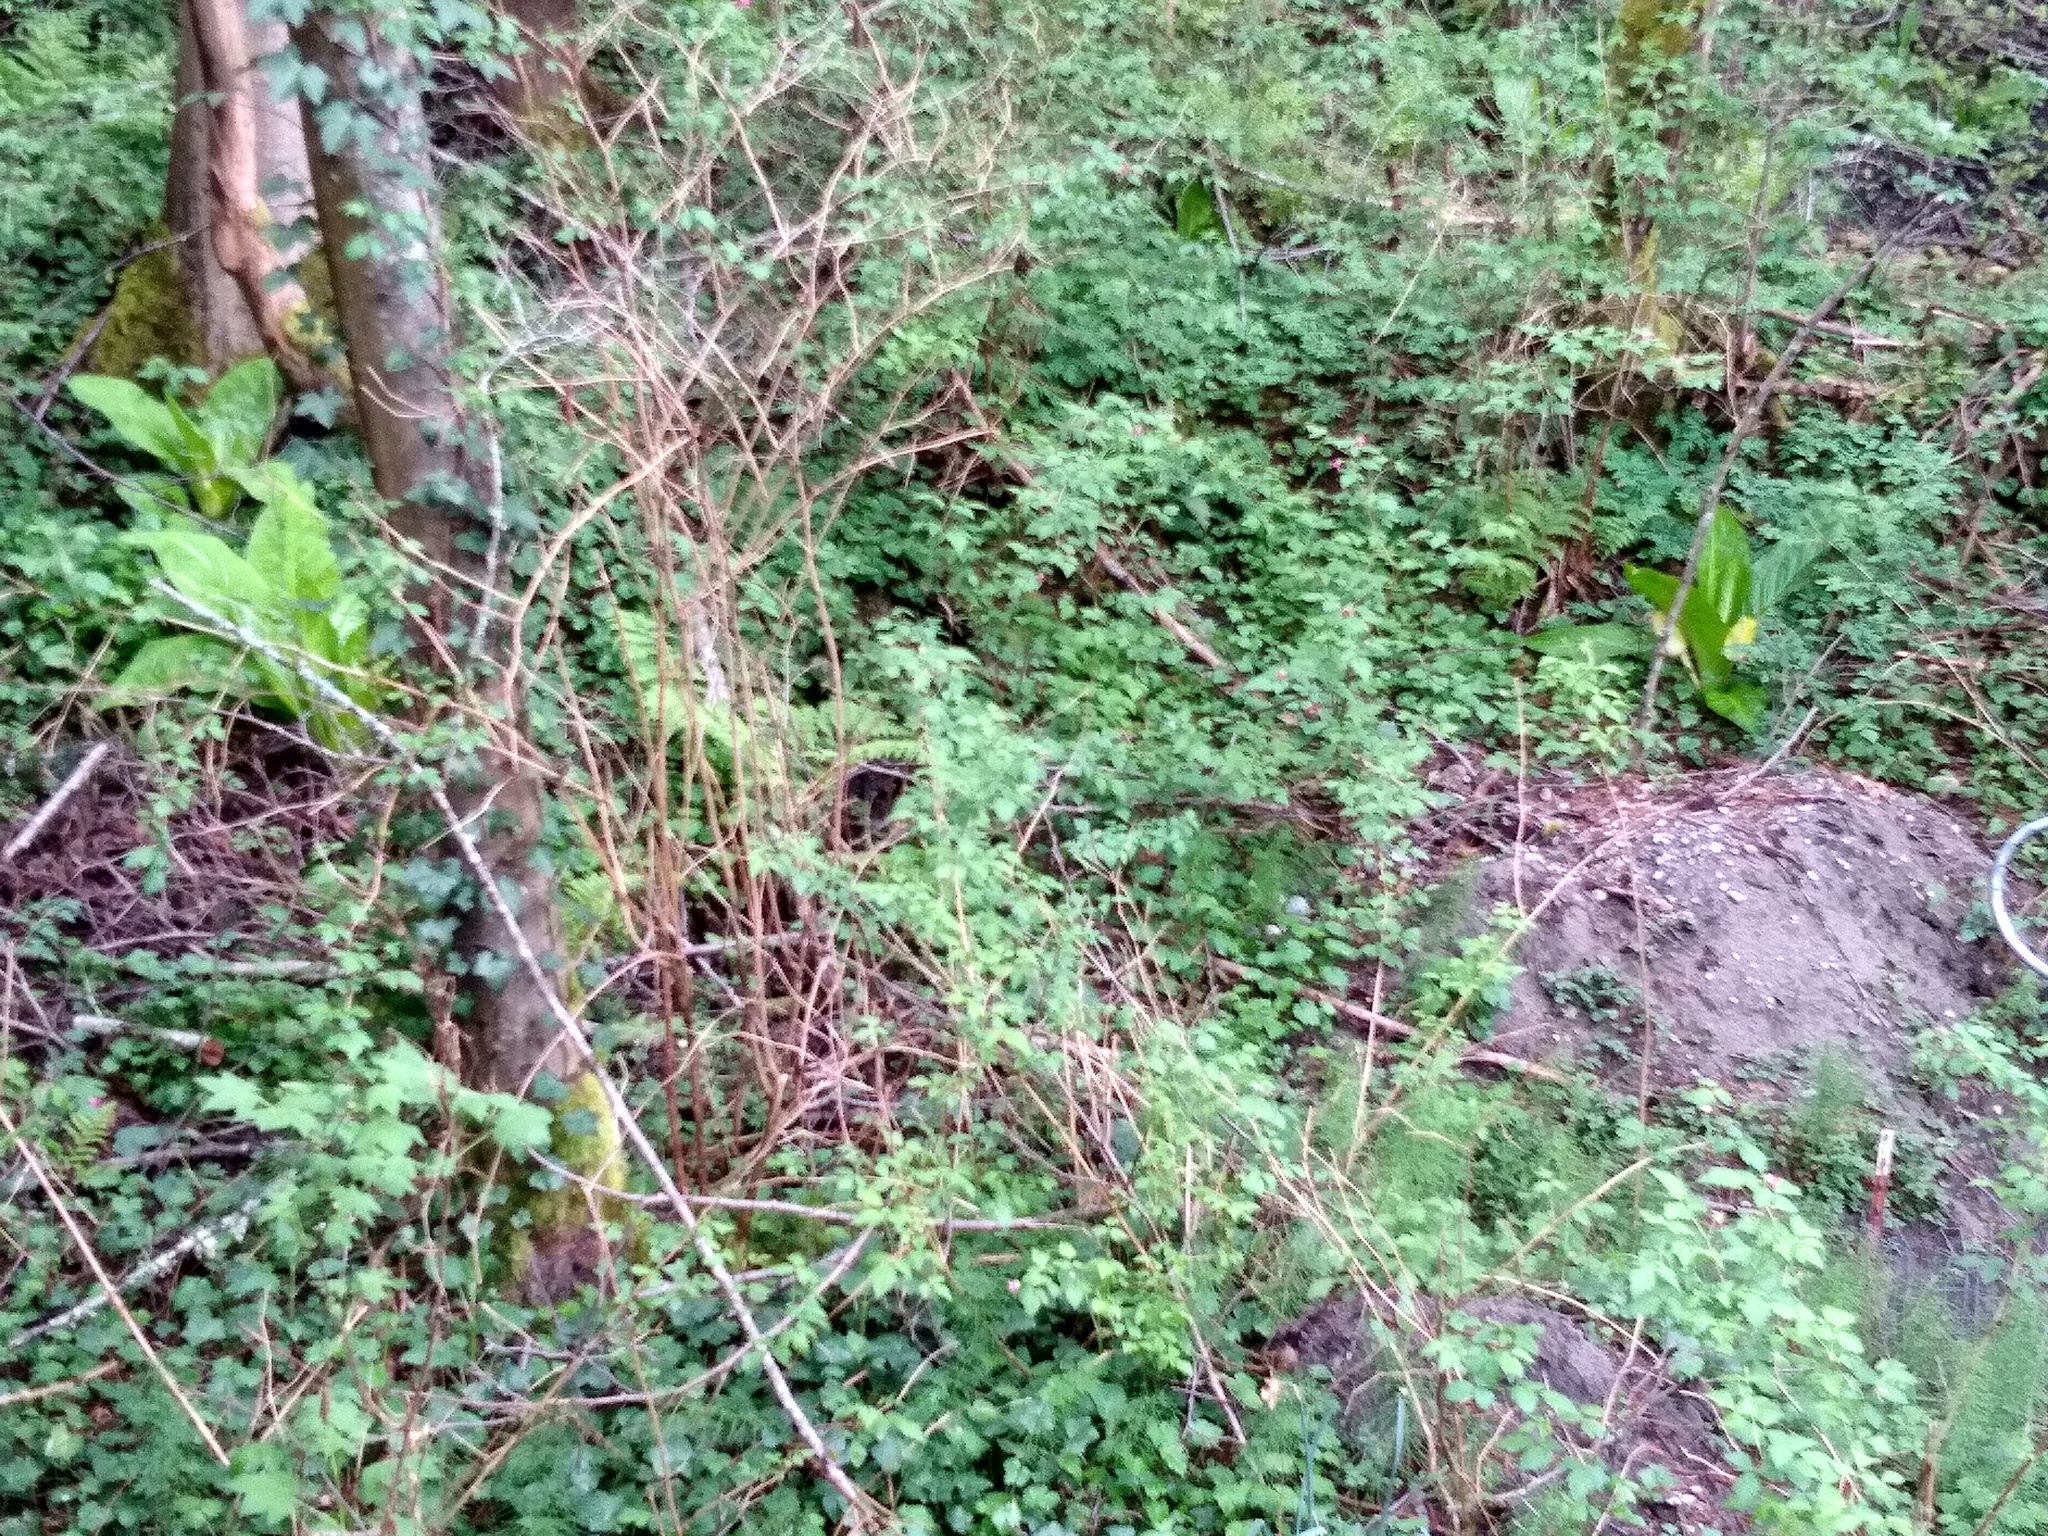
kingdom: Plantae
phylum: Tracheophyta
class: Liliopsida
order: Alismatales
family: Araceae
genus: Lysichiton
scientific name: Lysichiton americanus
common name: American skunk cabbage
